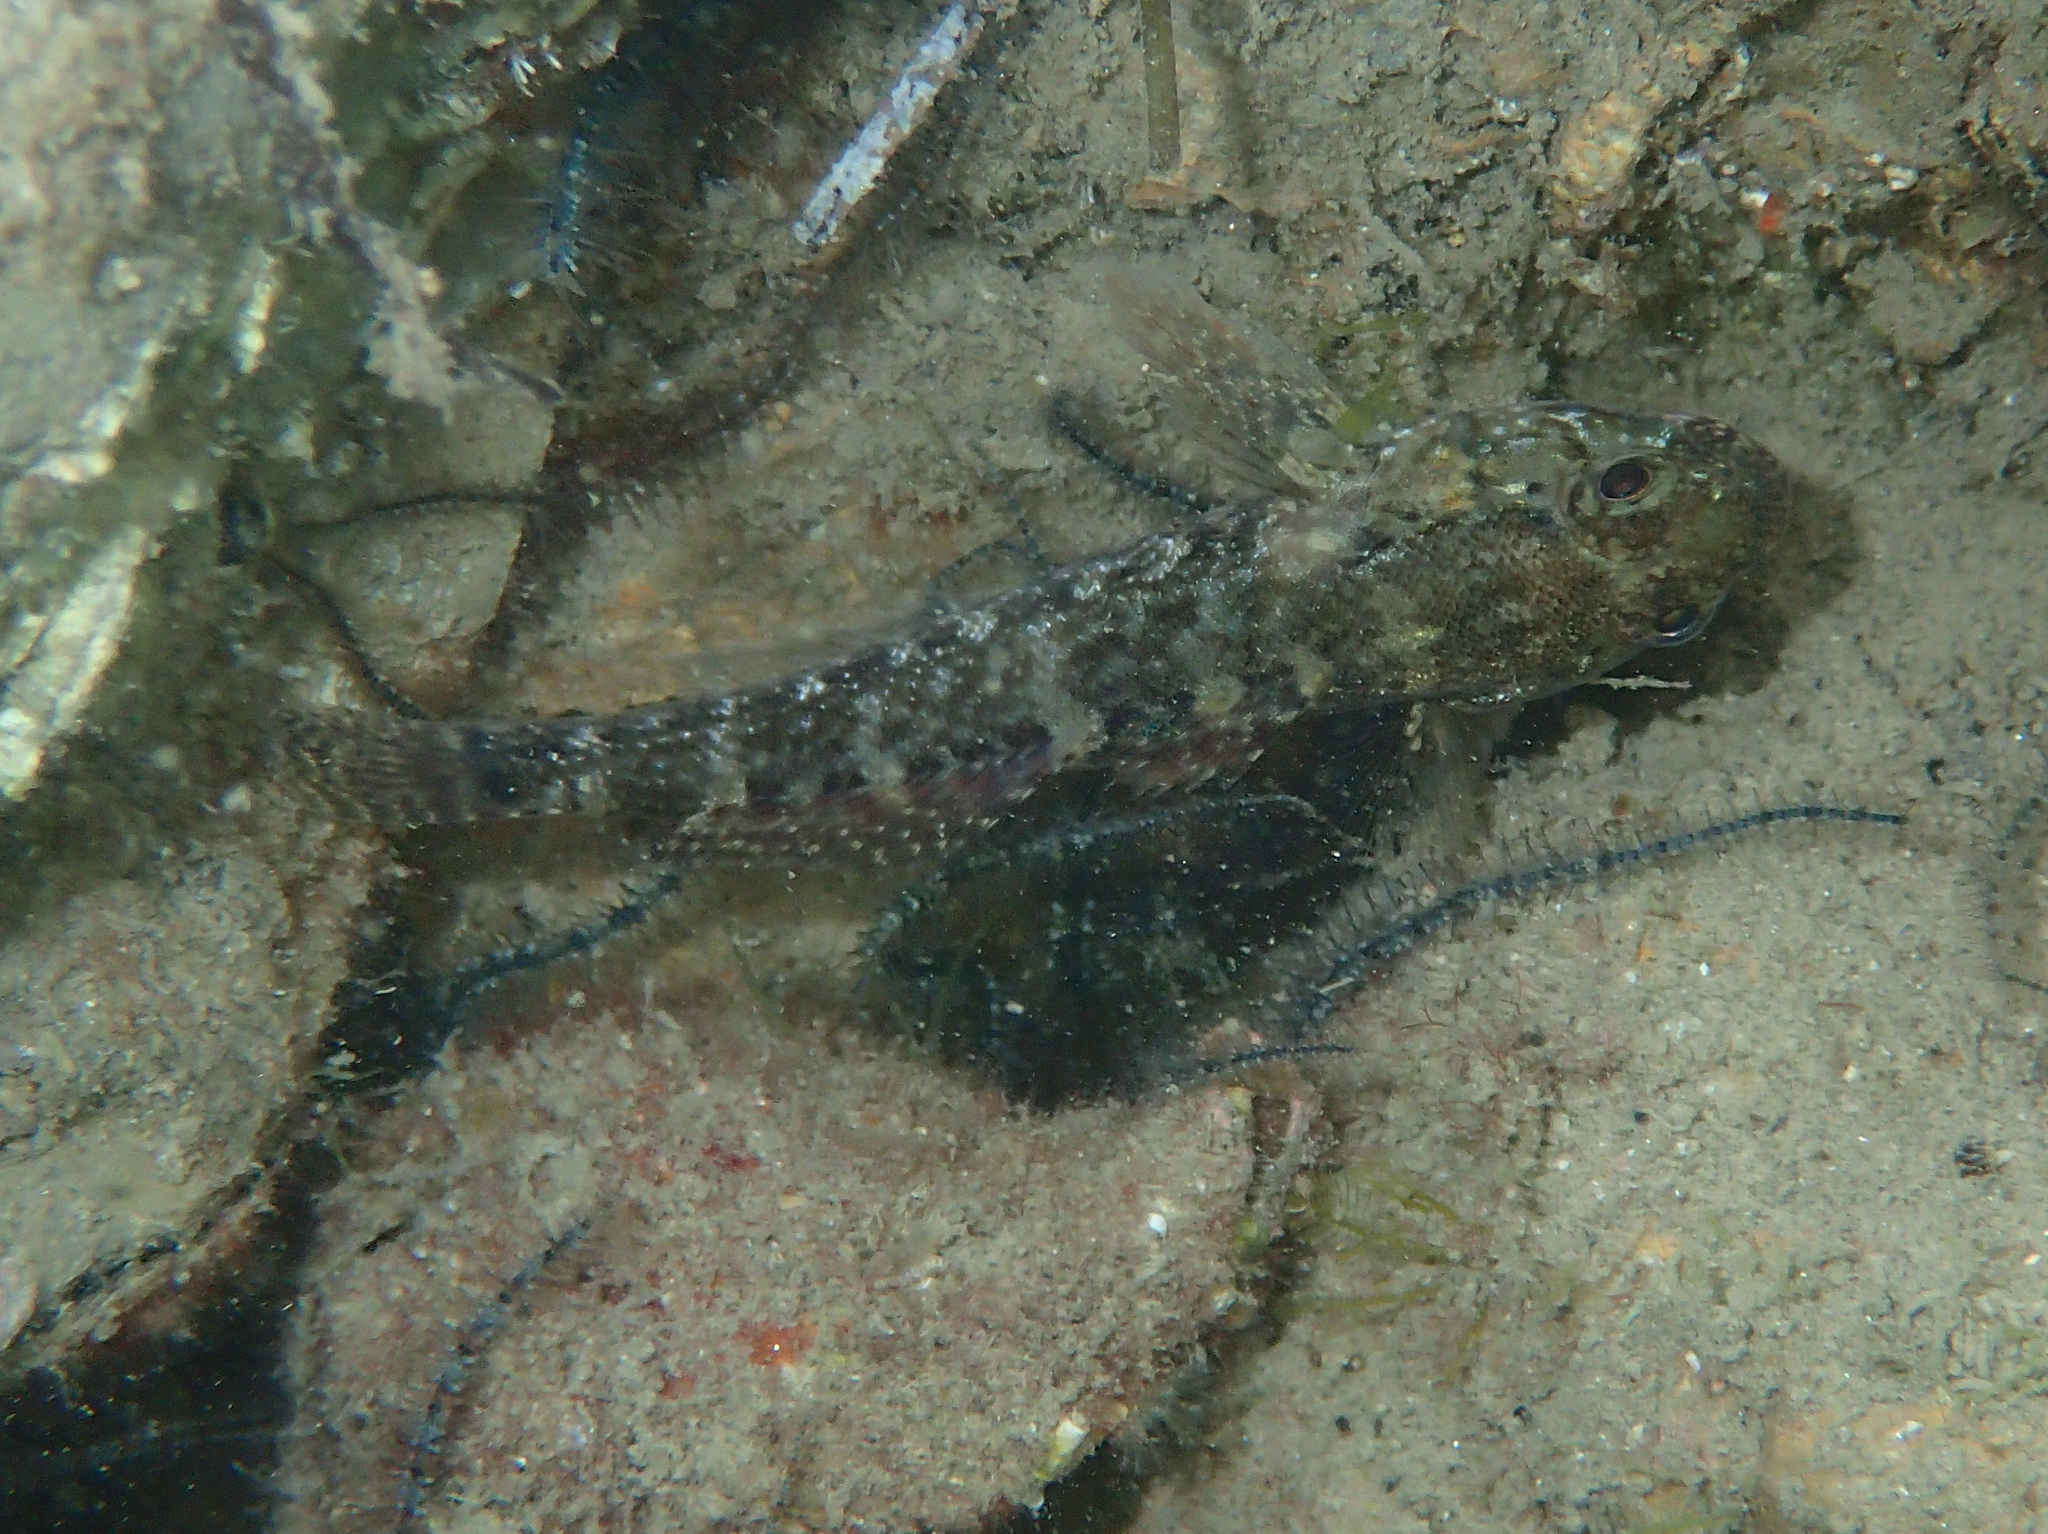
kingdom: Animalia
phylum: Chordata
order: Perciformes
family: Gobiidae
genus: Gobius
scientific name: Gobius paganellus
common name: Rock goby
